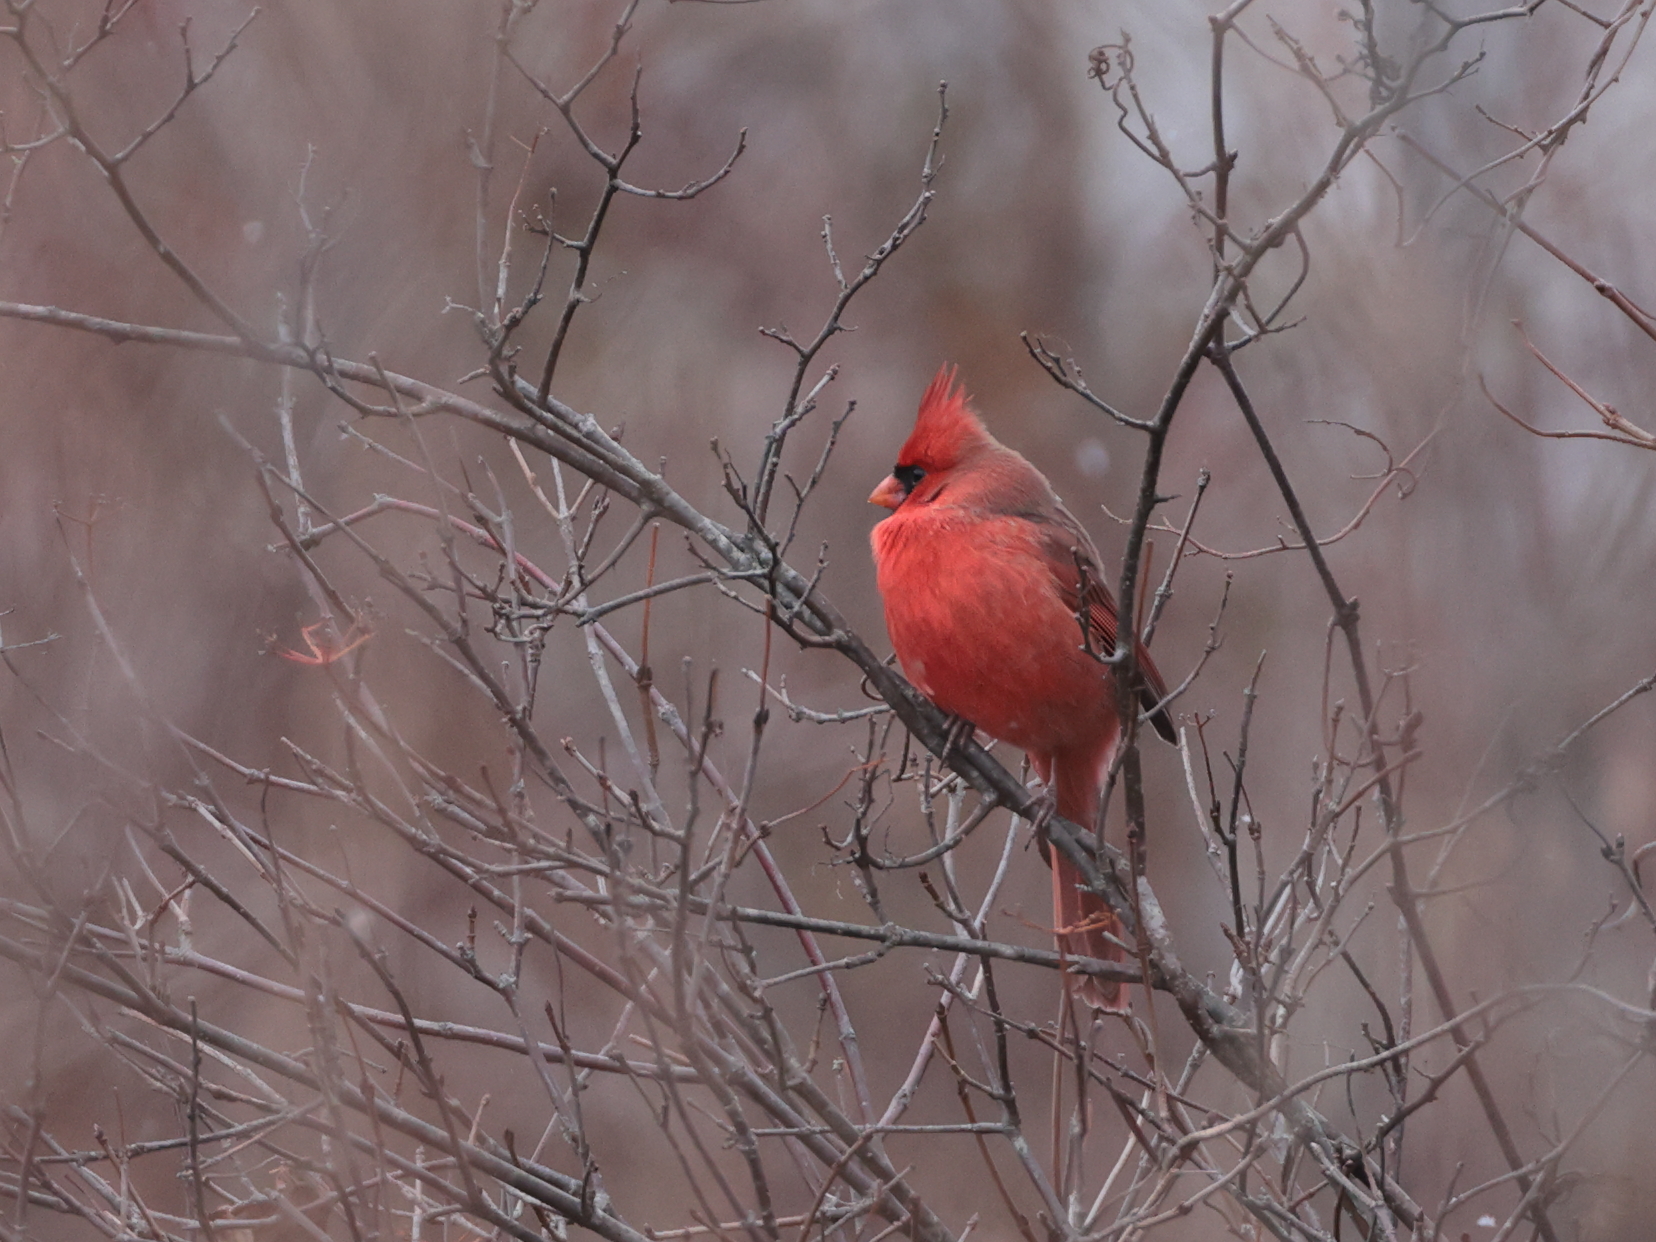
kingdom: Animalia
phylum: Chordata
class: Aves
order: Passeriformes
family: Cardinalidae
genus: Cardinalis
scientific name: Cardinalis cardinalis
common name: Northern cardinal
